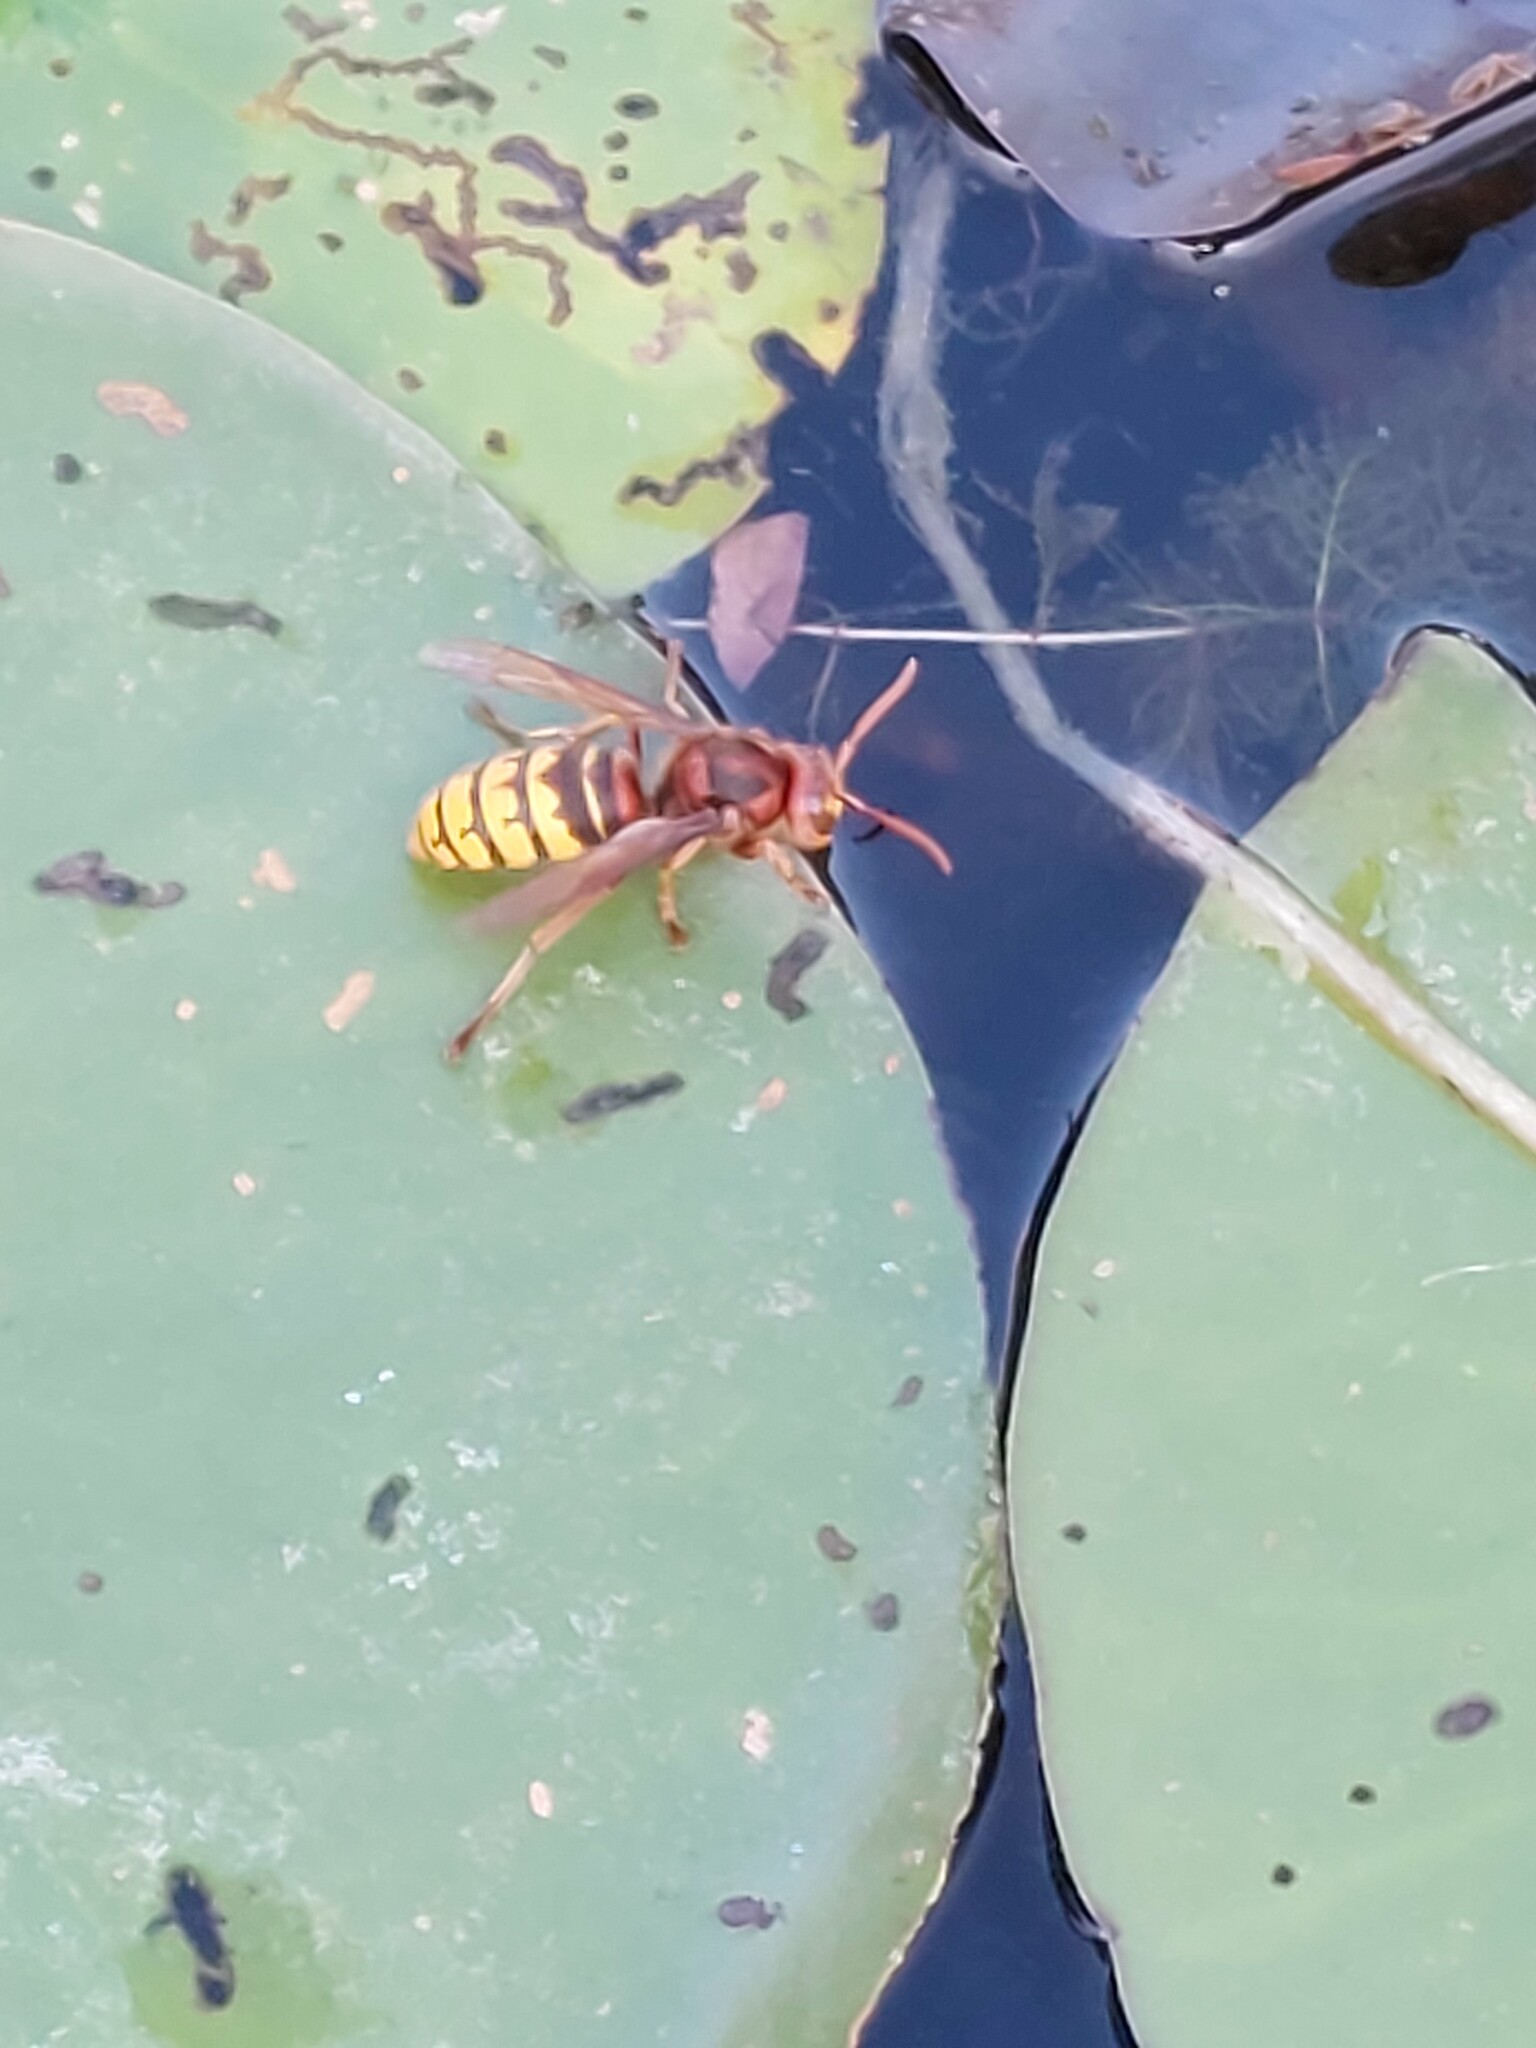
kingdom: Animalia
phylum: Arthropoda
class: Insecta
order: Hymenoptera
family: Vespidae
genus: Vespa
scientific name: Vespa crabro
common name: Hornet
